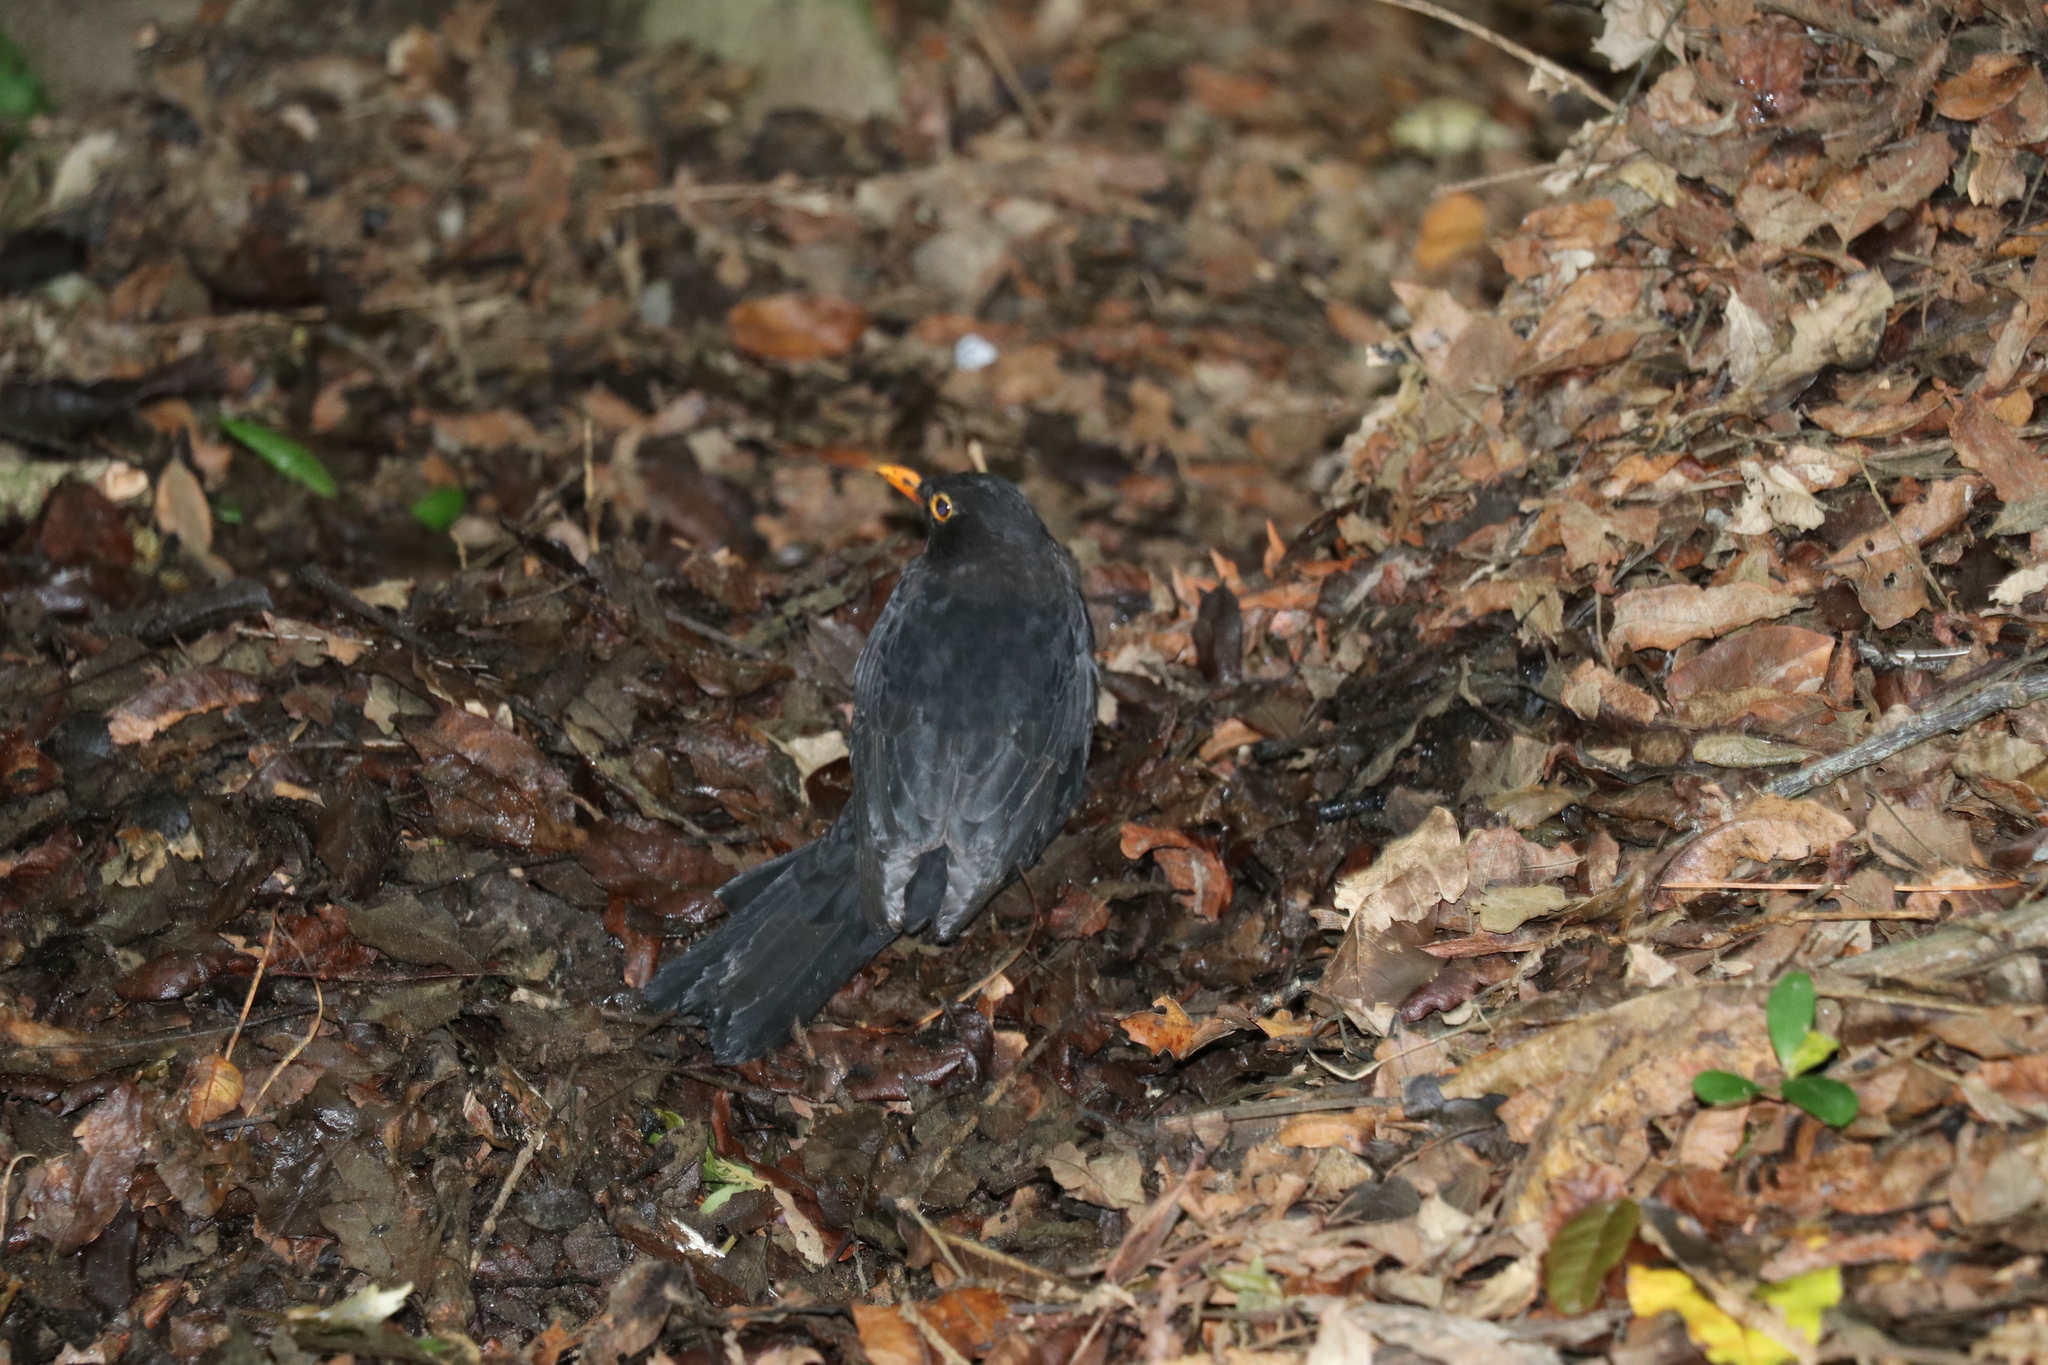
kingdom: Animalia
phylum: Chordata
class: Aves
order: Passeriformes
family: Turdidae
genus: Turdus
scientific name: Turdus merula
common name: Common blackbird
